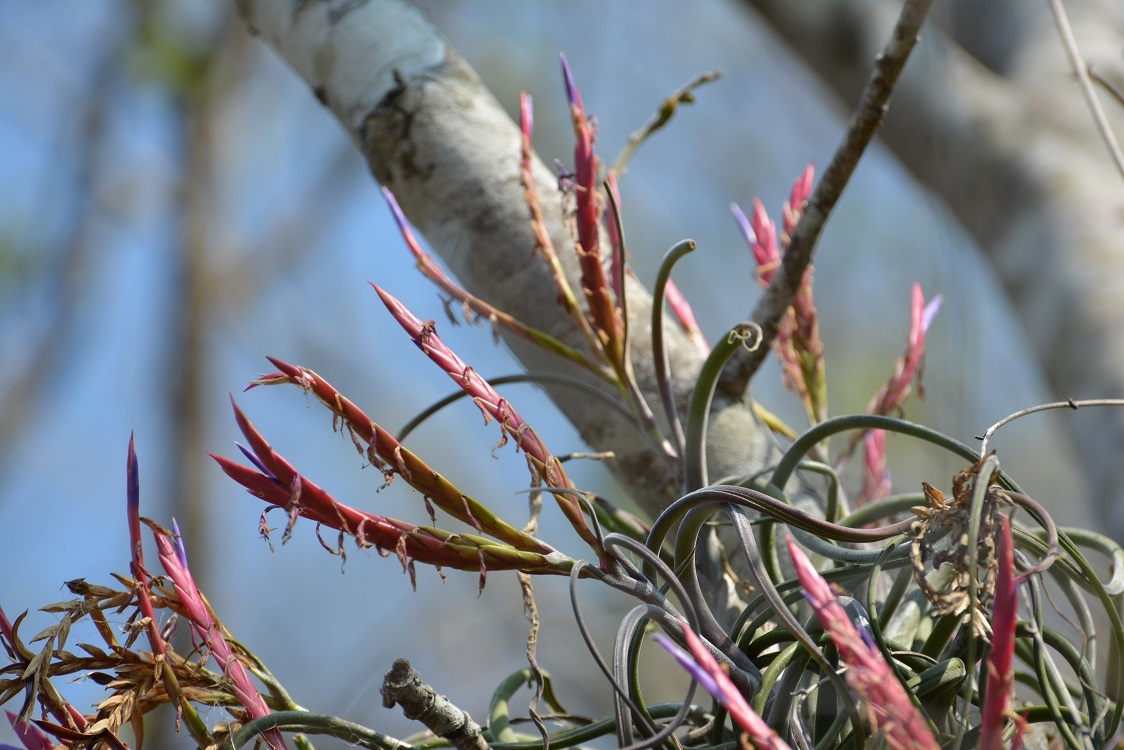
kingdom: Plantae
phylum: Tracheophyta
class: Liliopsida
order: Poales
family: Bromeliaceae
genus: Tillandsia
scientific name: Tillandsia caput-medusae
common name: Octopus plant
